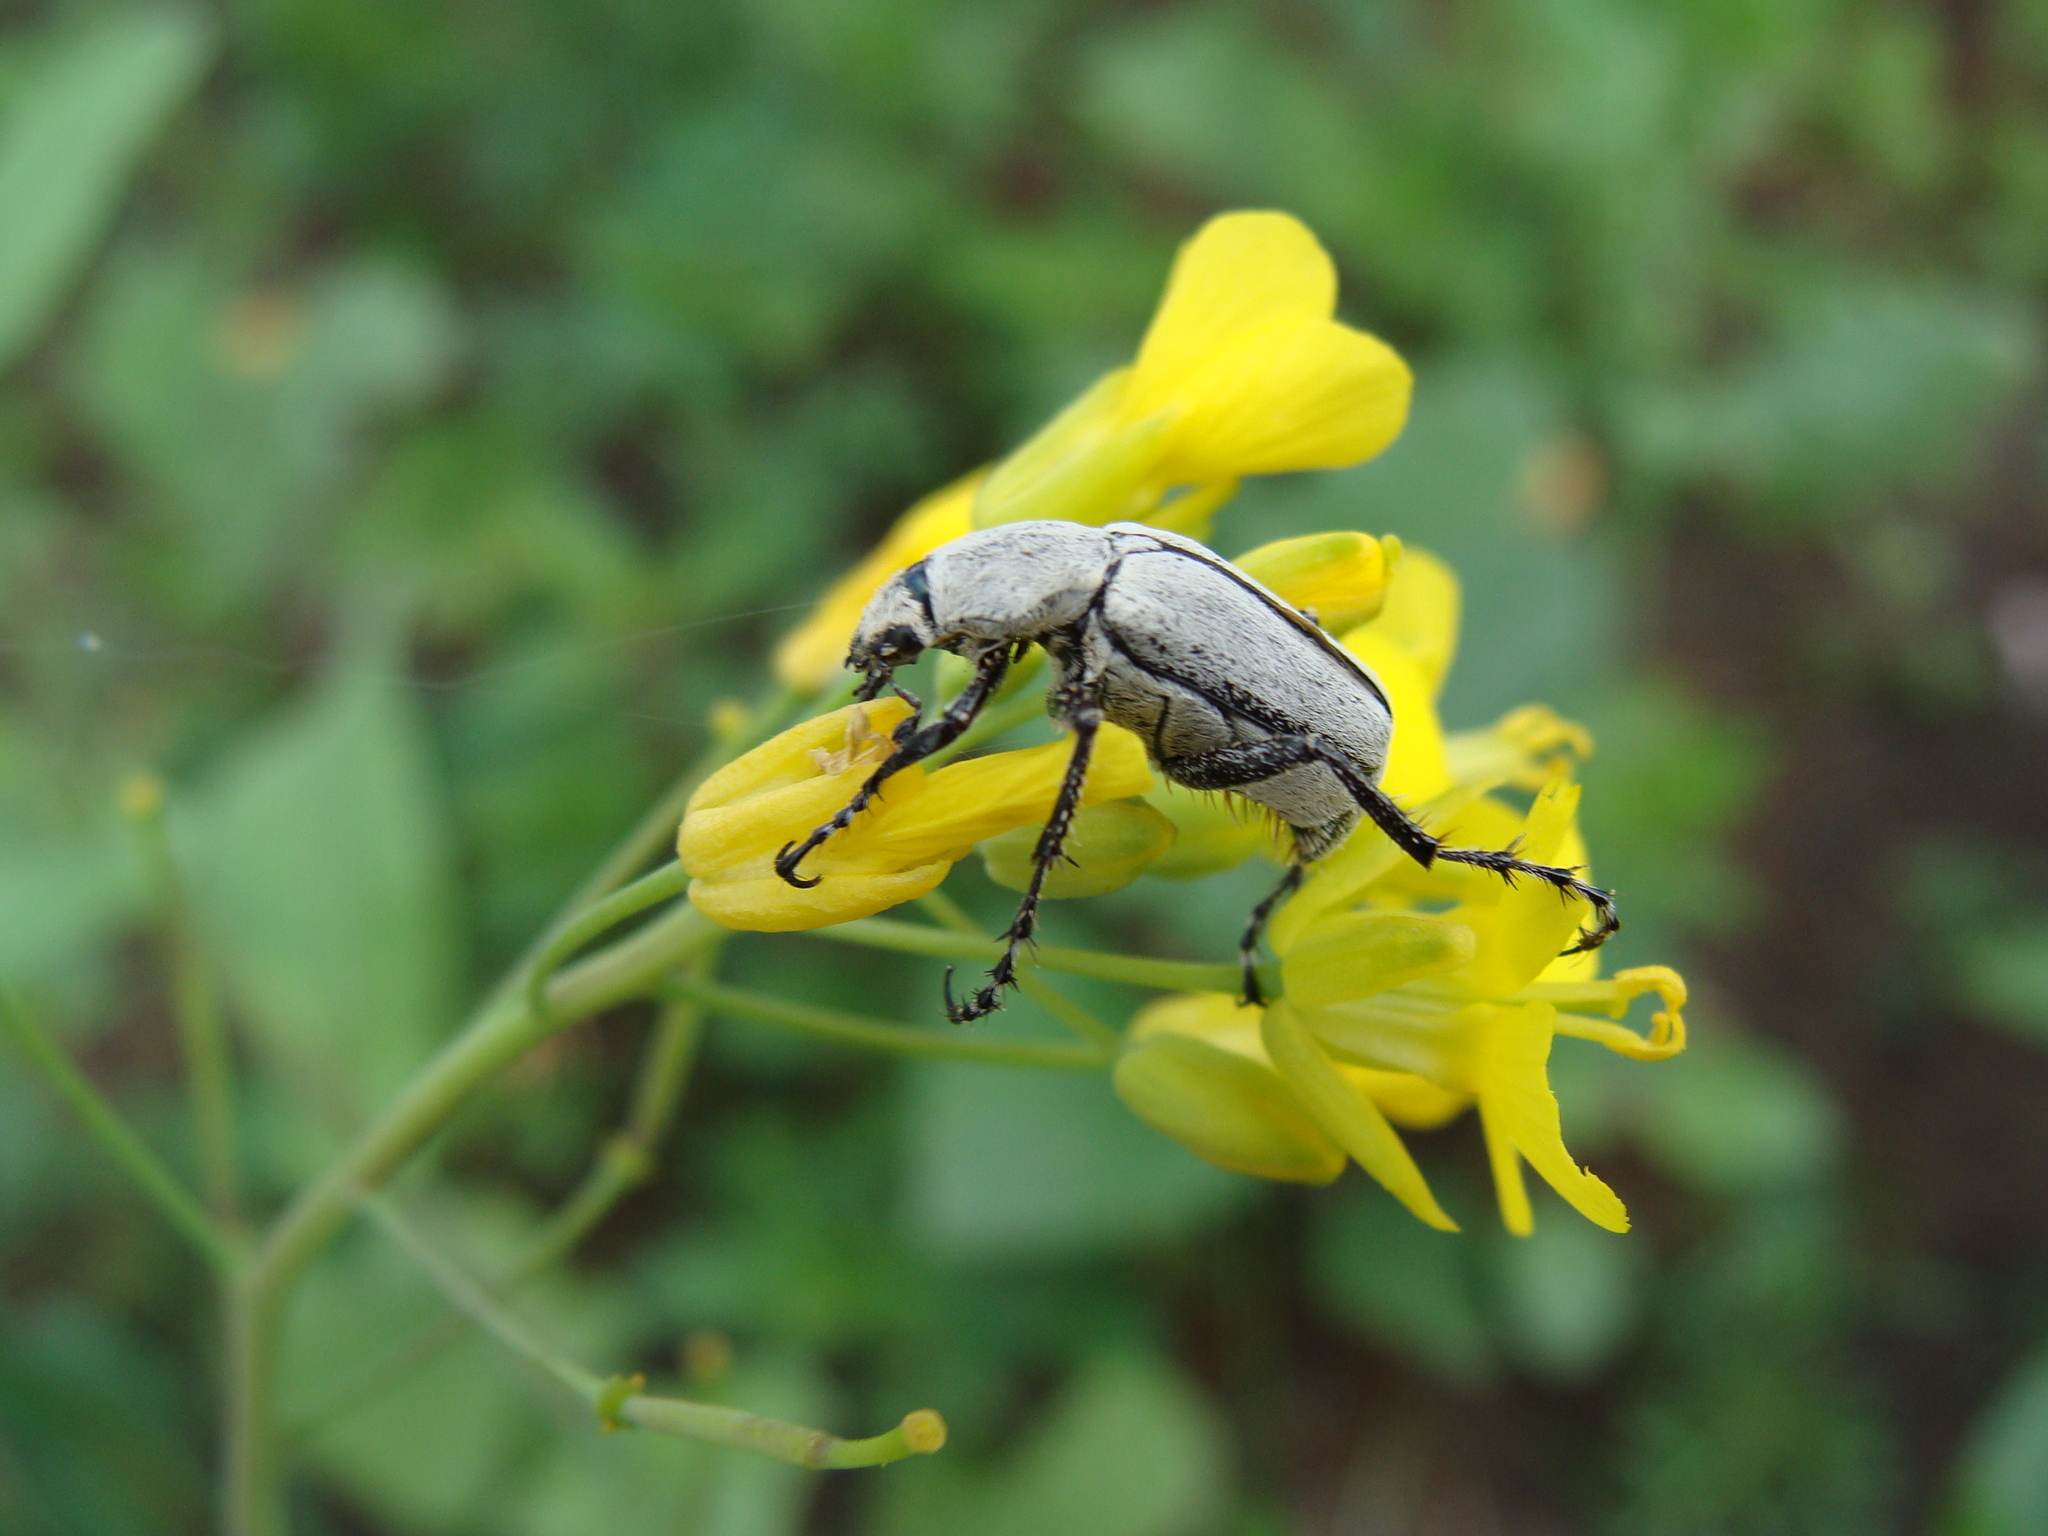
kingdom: Animalia
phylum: Arthropoda
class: Insecta
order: Coleoptera
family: Scarabaeidae
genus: Macrodactylus
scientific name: Macrodactylus nigripes
